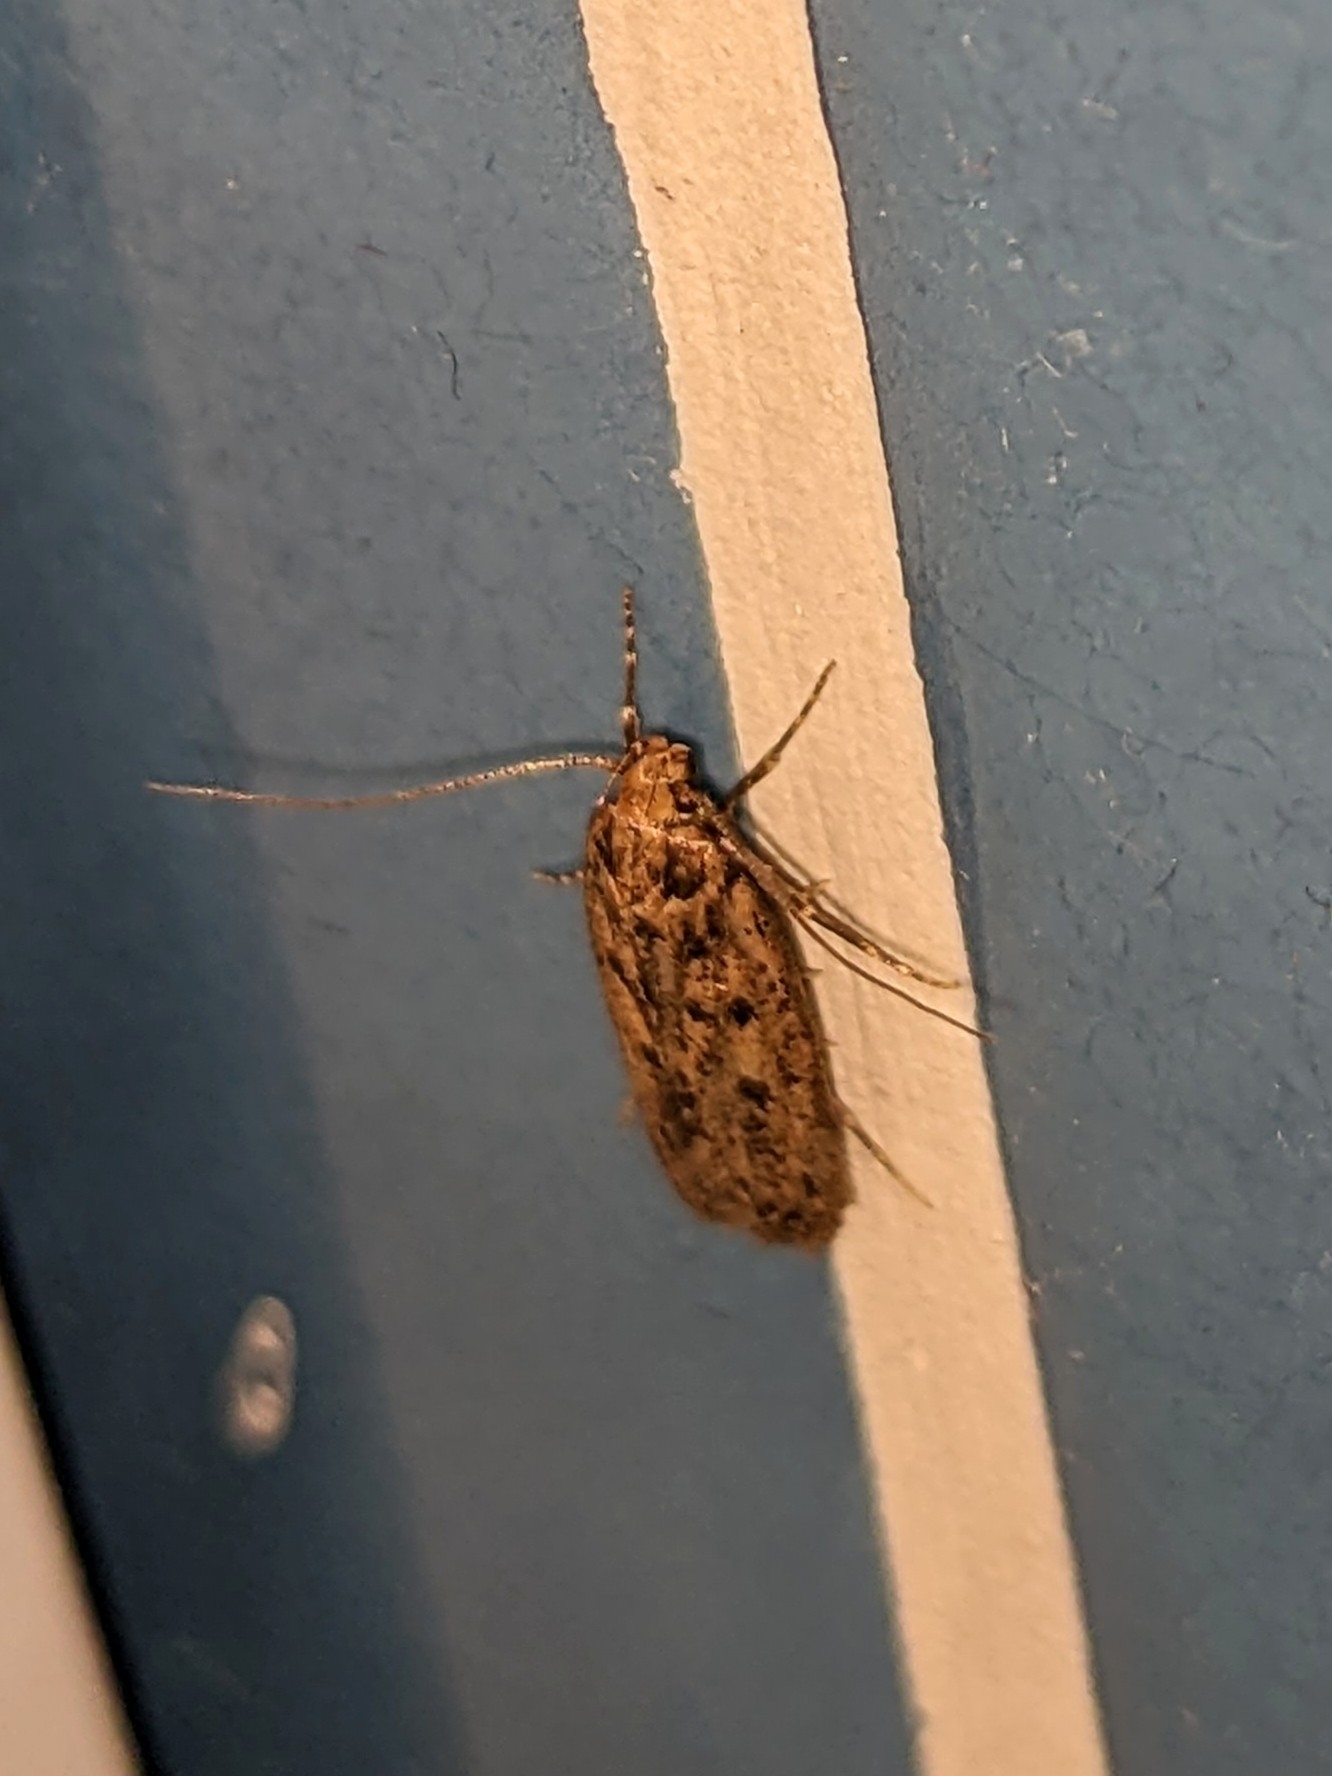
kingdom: Animalia
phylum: Arthropoda
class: Insecta
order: Lepidoptera
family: Oecophoridae
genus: Hofmannophila
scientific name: Hofmannophila pseudospretella
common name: Brown house moth
